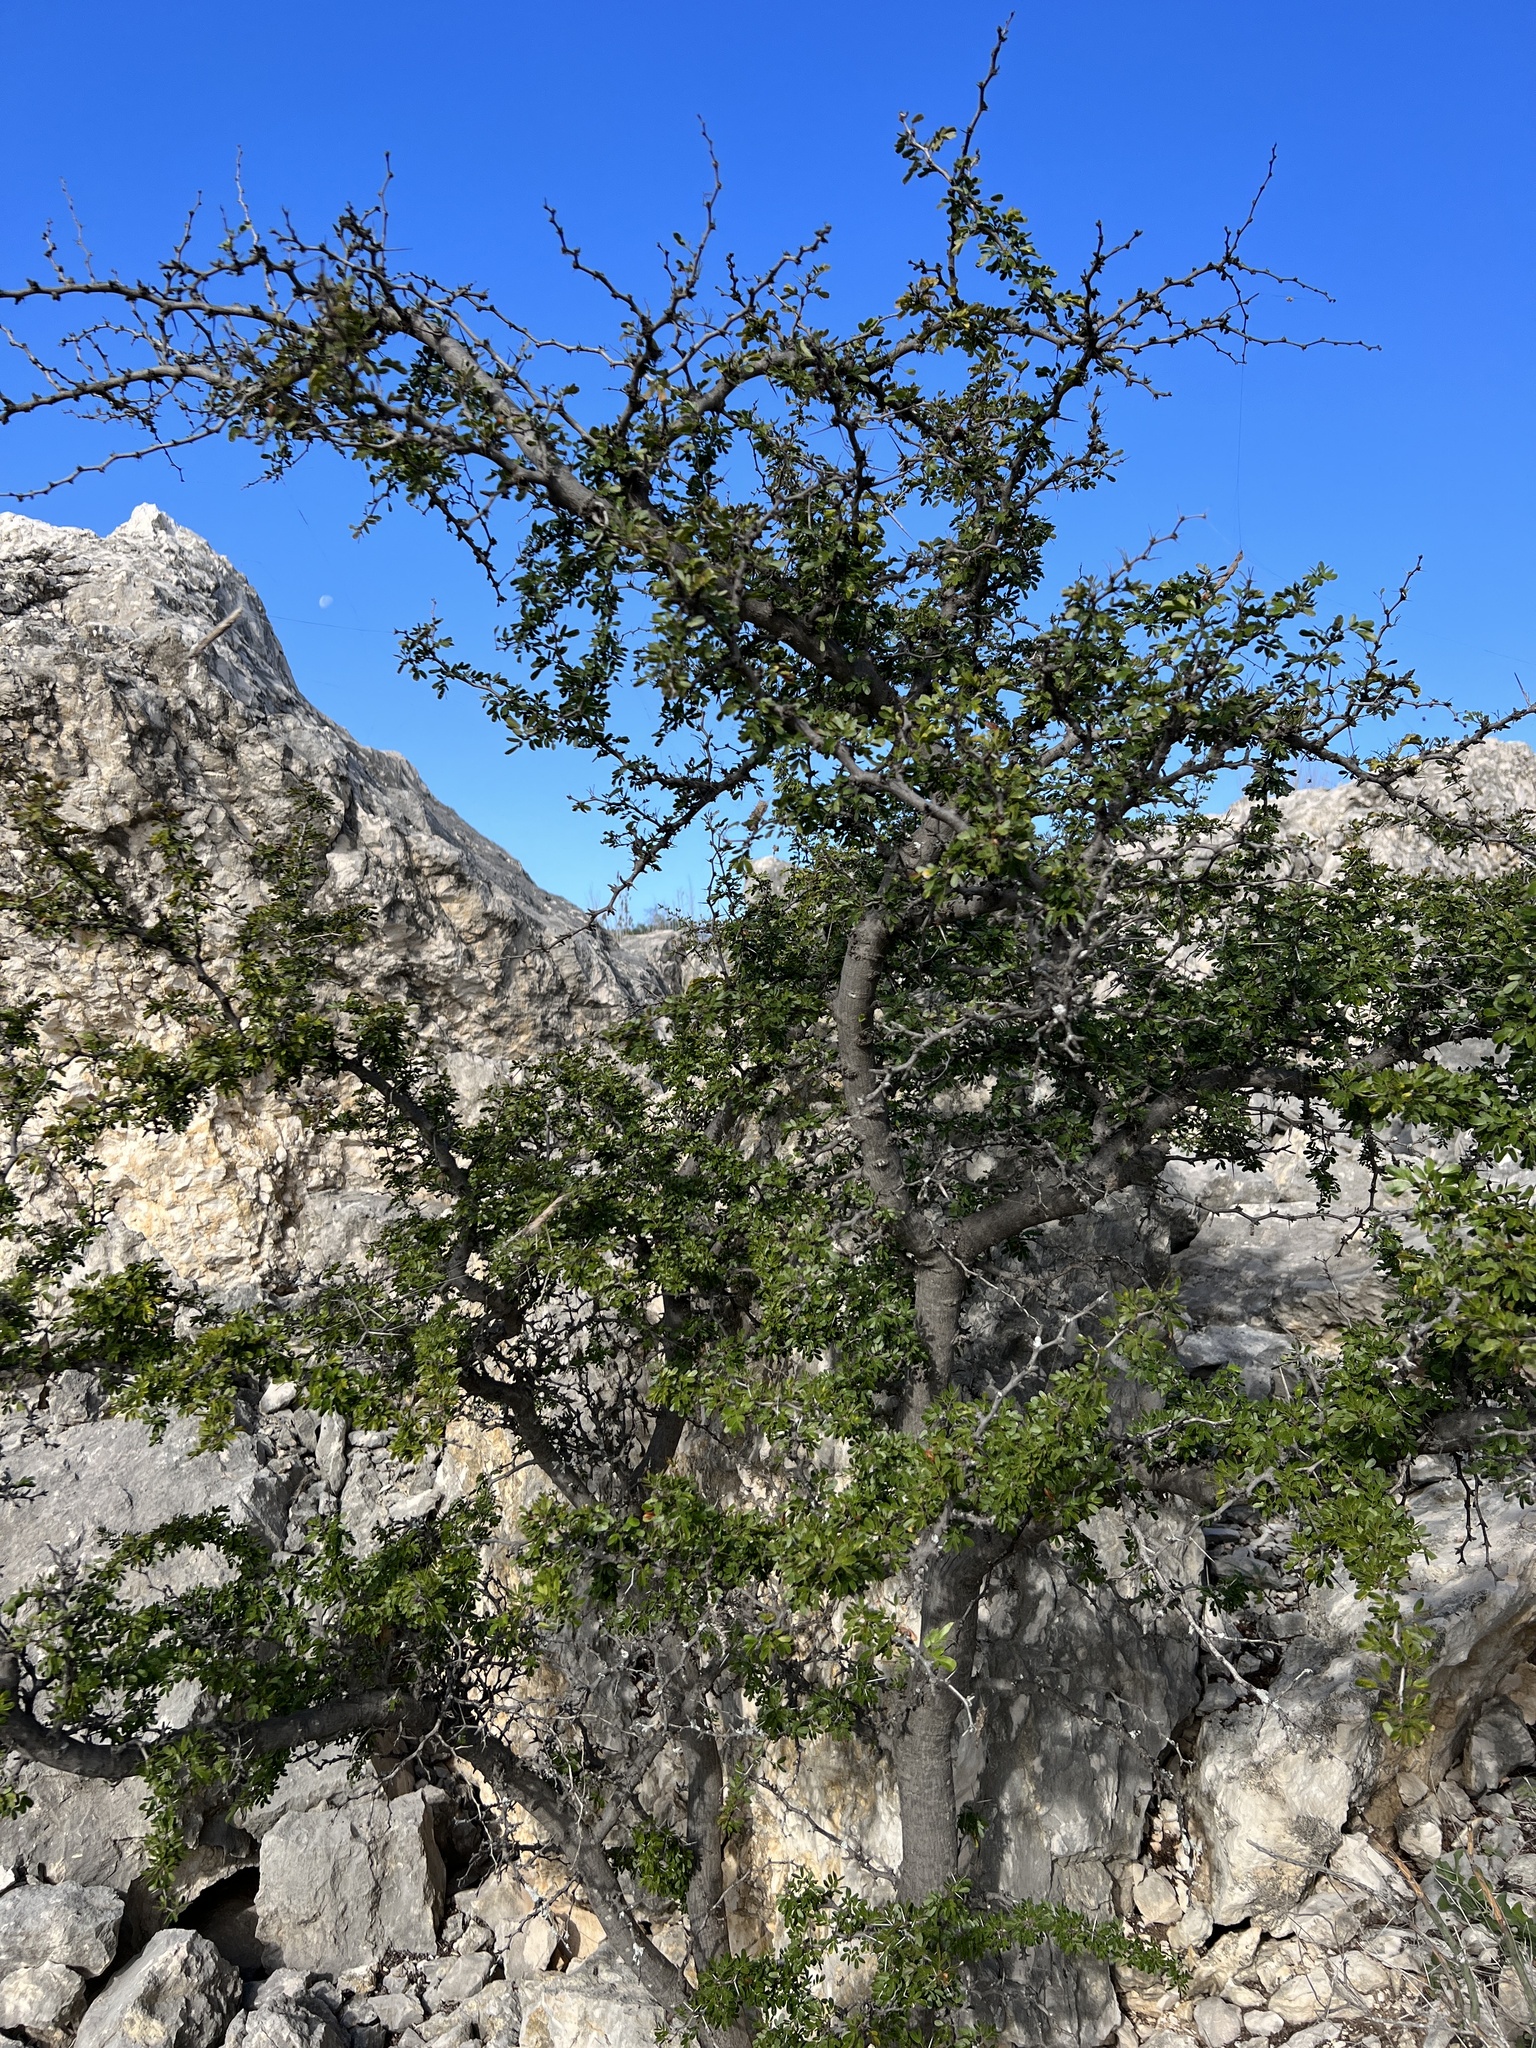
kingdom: Plantae
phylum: Tracheophyta
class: Magnoliopsida
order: Fabales
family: Fabaceae
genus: Vachellia
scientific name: Vachellia rigidula
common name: Blackbrush
